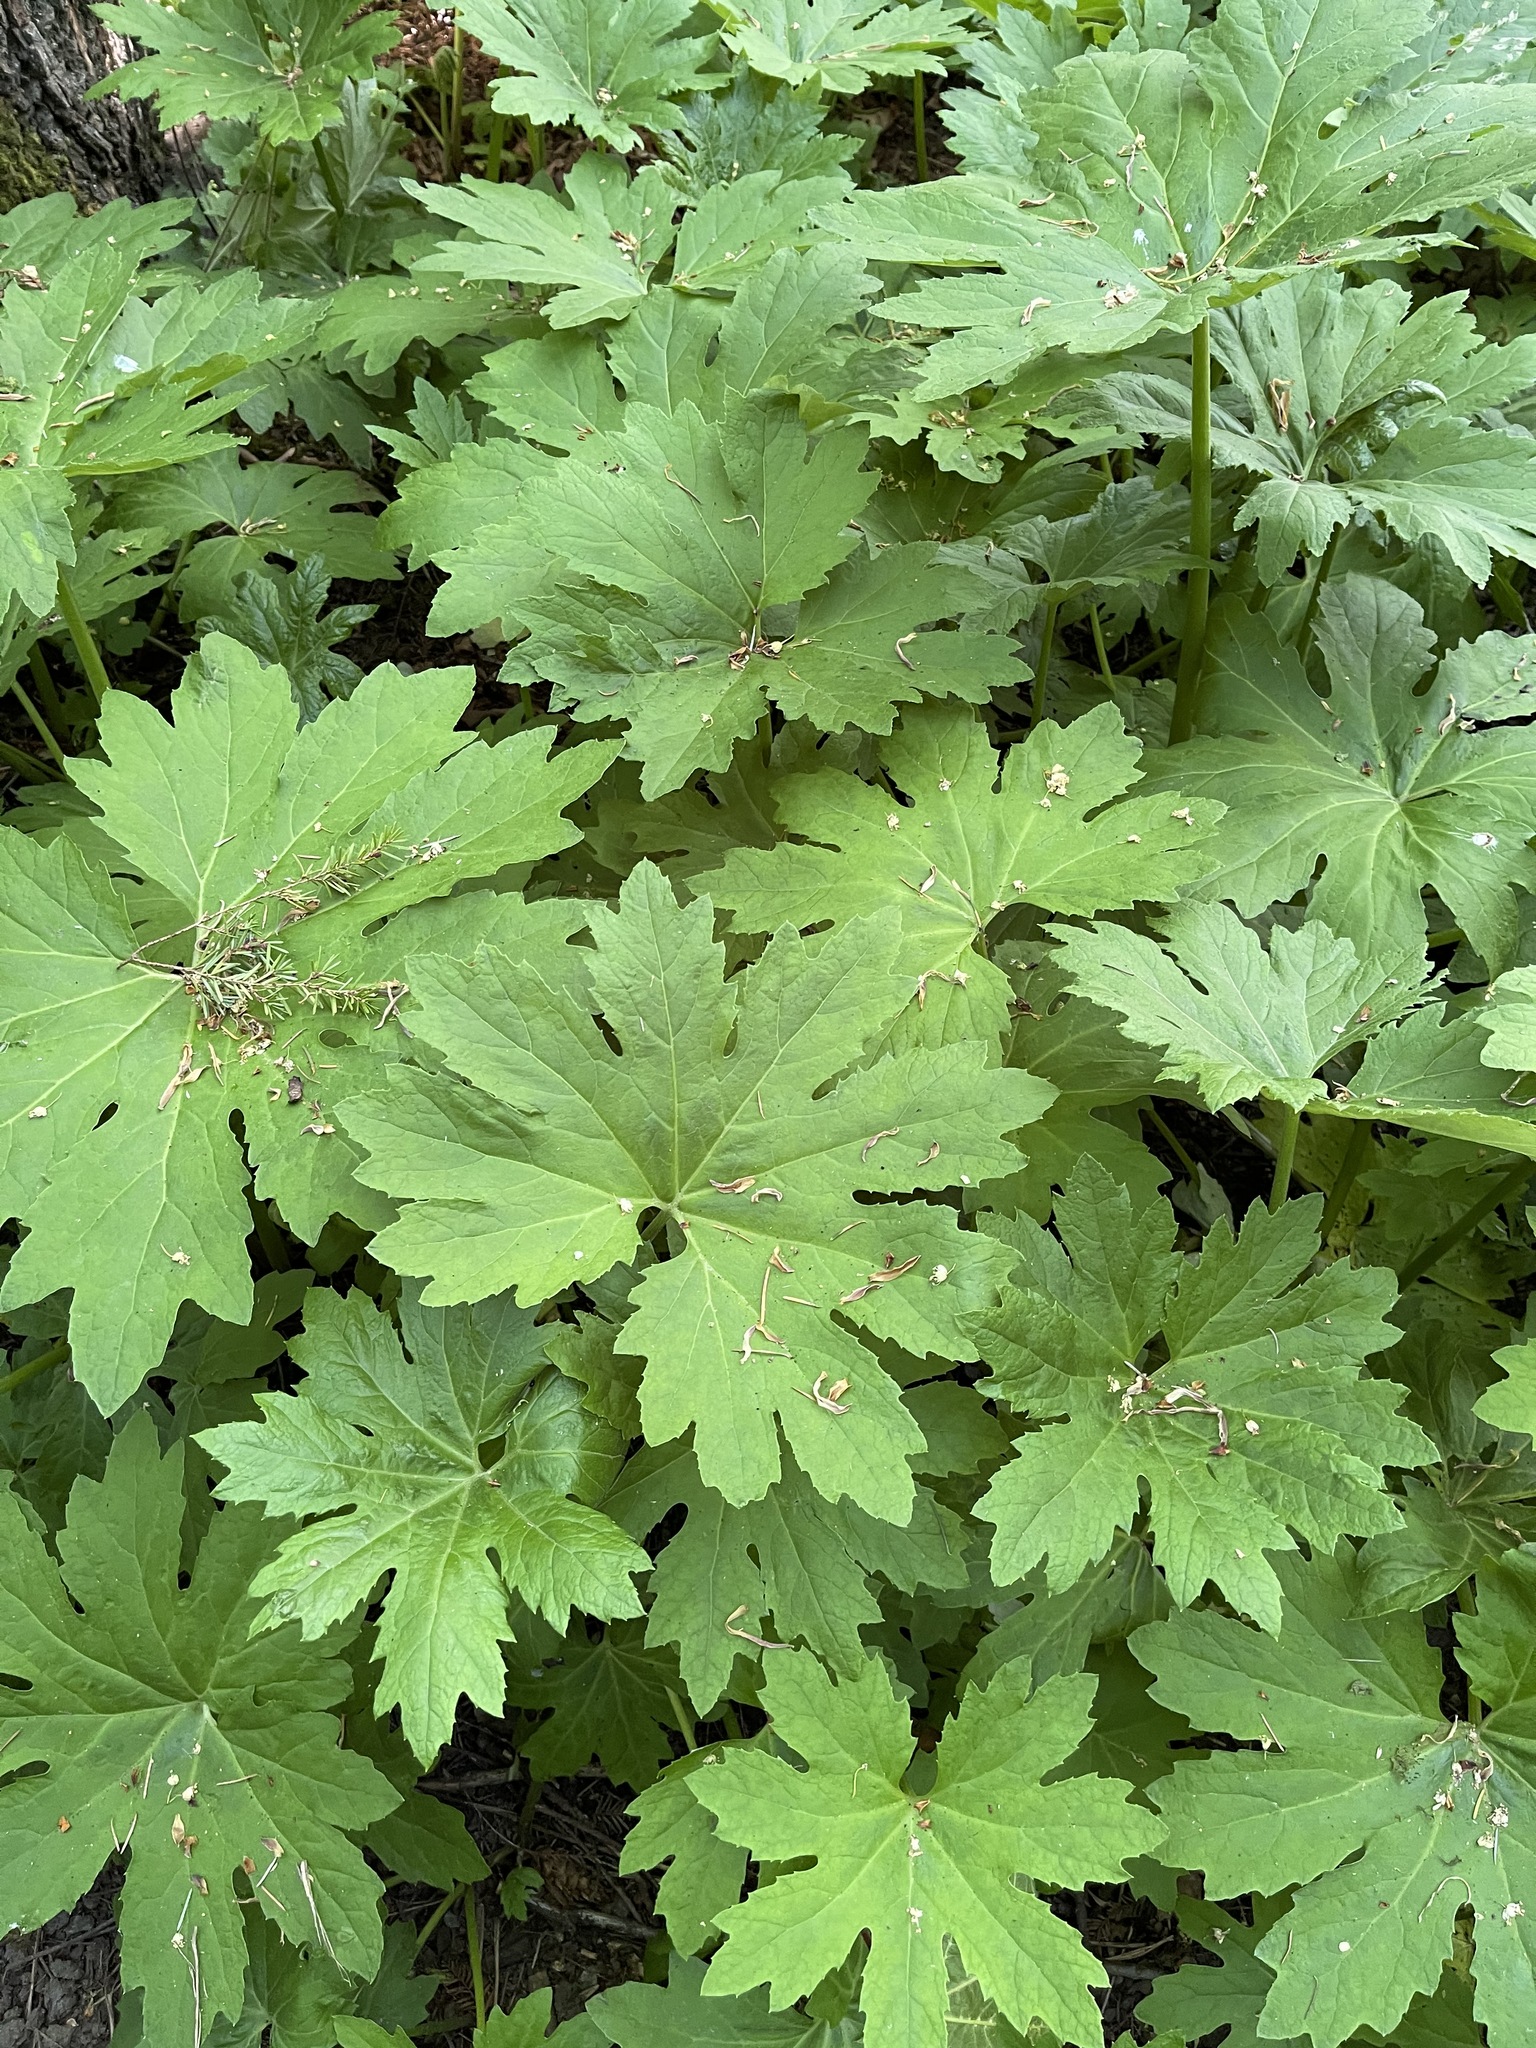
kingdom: Plantae
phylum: Tracheophyta
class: Magnoliopsida
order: Asterales
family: Asteraceae
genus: Petasites
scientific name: Petasites frigidus
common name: Arctic butterbur
